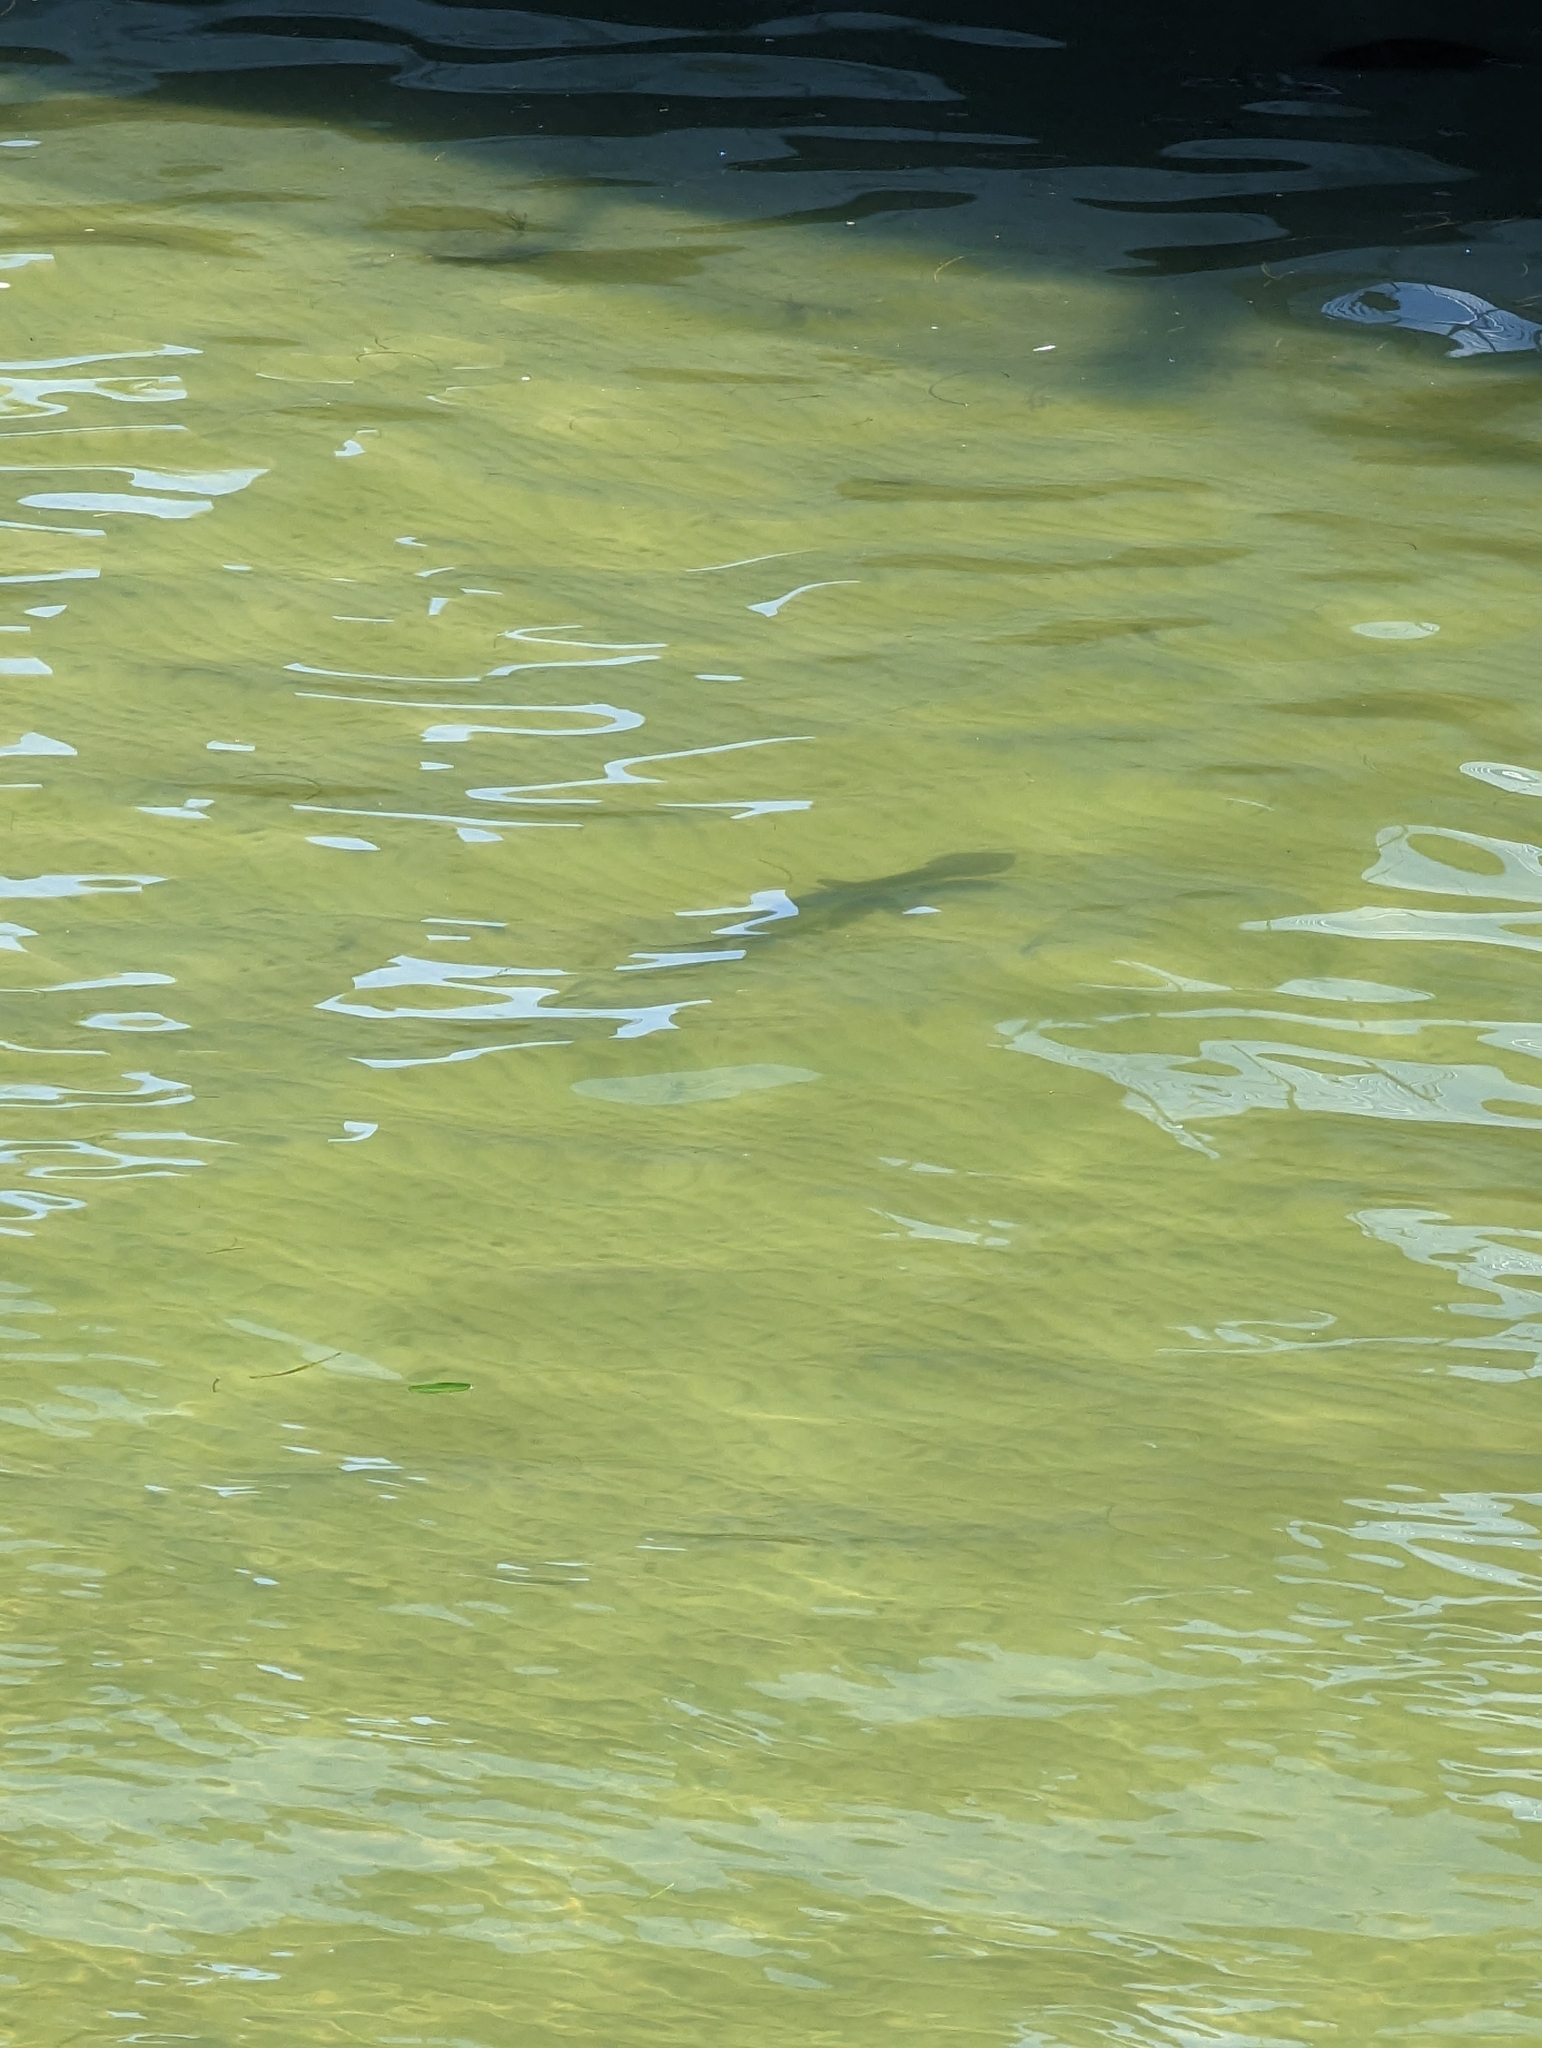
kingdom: Animalia
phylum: Chordata
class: Elasmobranchii
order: Carcharhiniformes
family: Sphyrnidae
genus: Sphyrna
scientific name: Sphyrna tiburo
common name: Bonnethead
